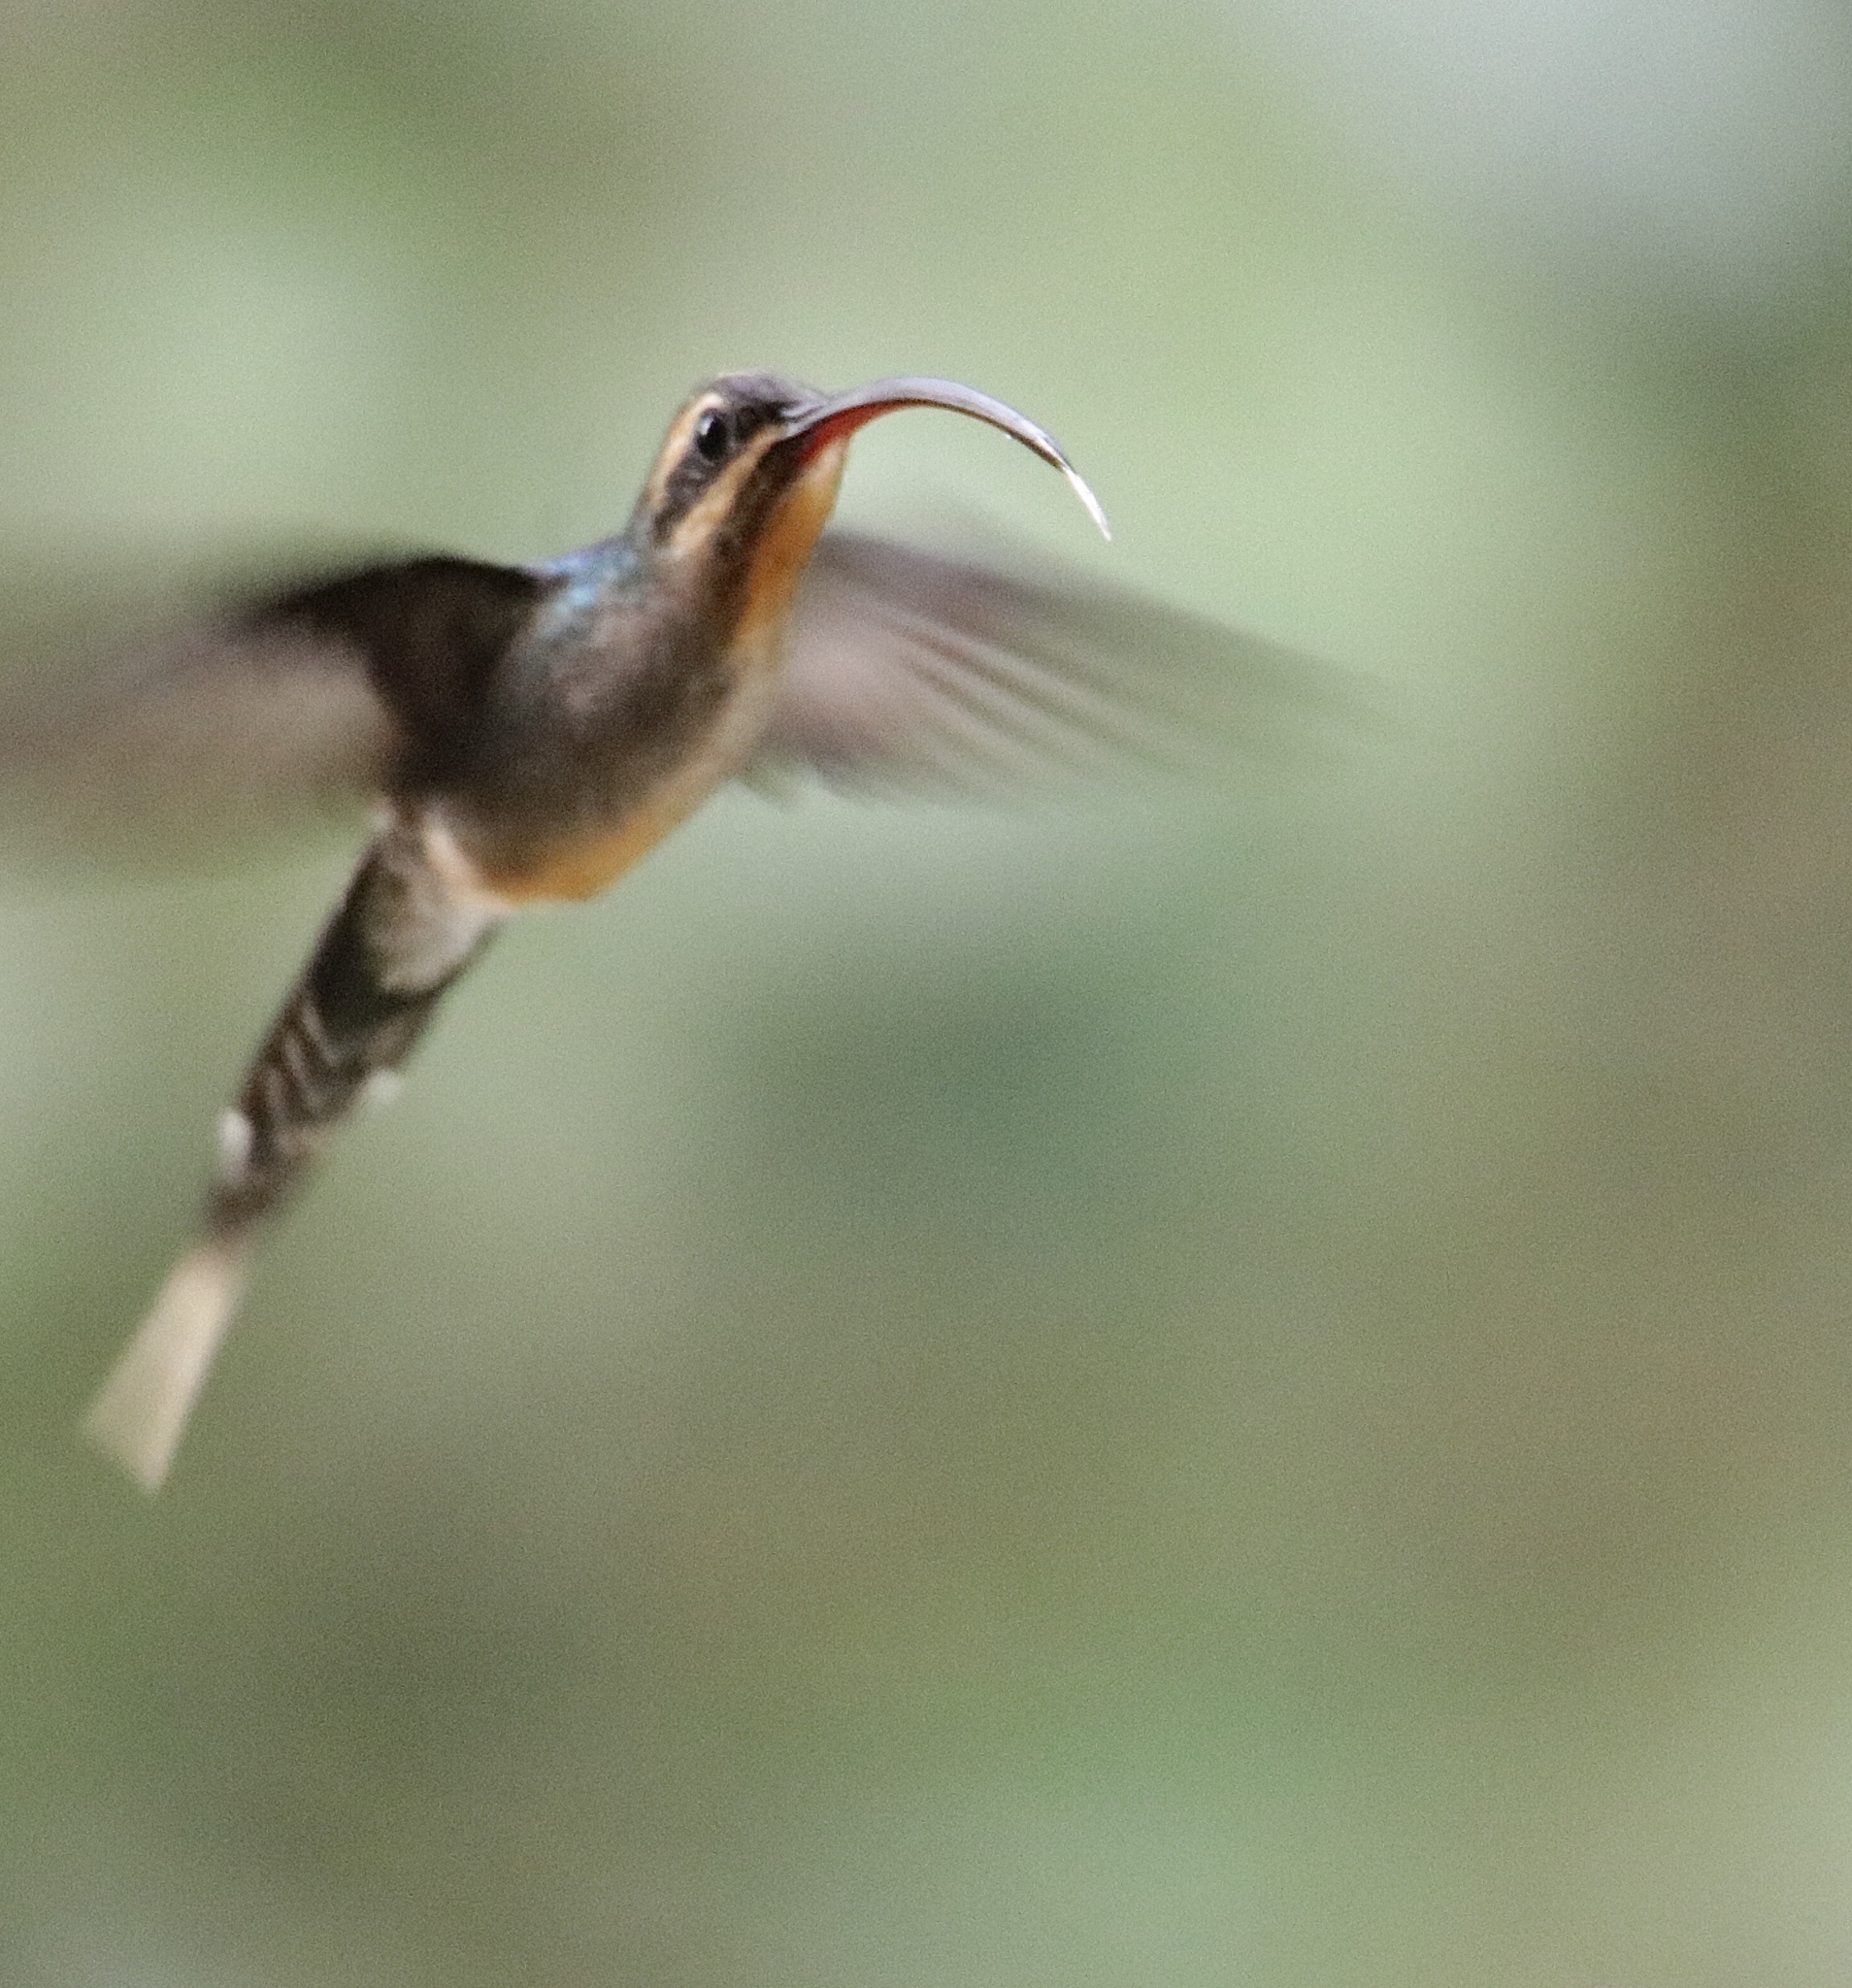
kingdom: Animalia
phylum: Chordata
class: Aves
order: Apodiformes
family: Trochilidae
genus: Phaethornis
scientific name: Phaethornis guy
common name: Green hermit
